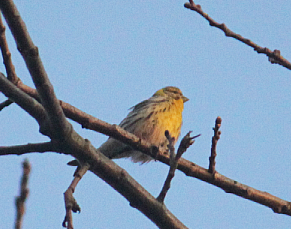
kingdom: Animalia
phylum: Chordata
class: Aves
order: Passeriformes
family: Fringillidae
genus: Serinus
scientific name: Serinus serinus
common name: European serin
